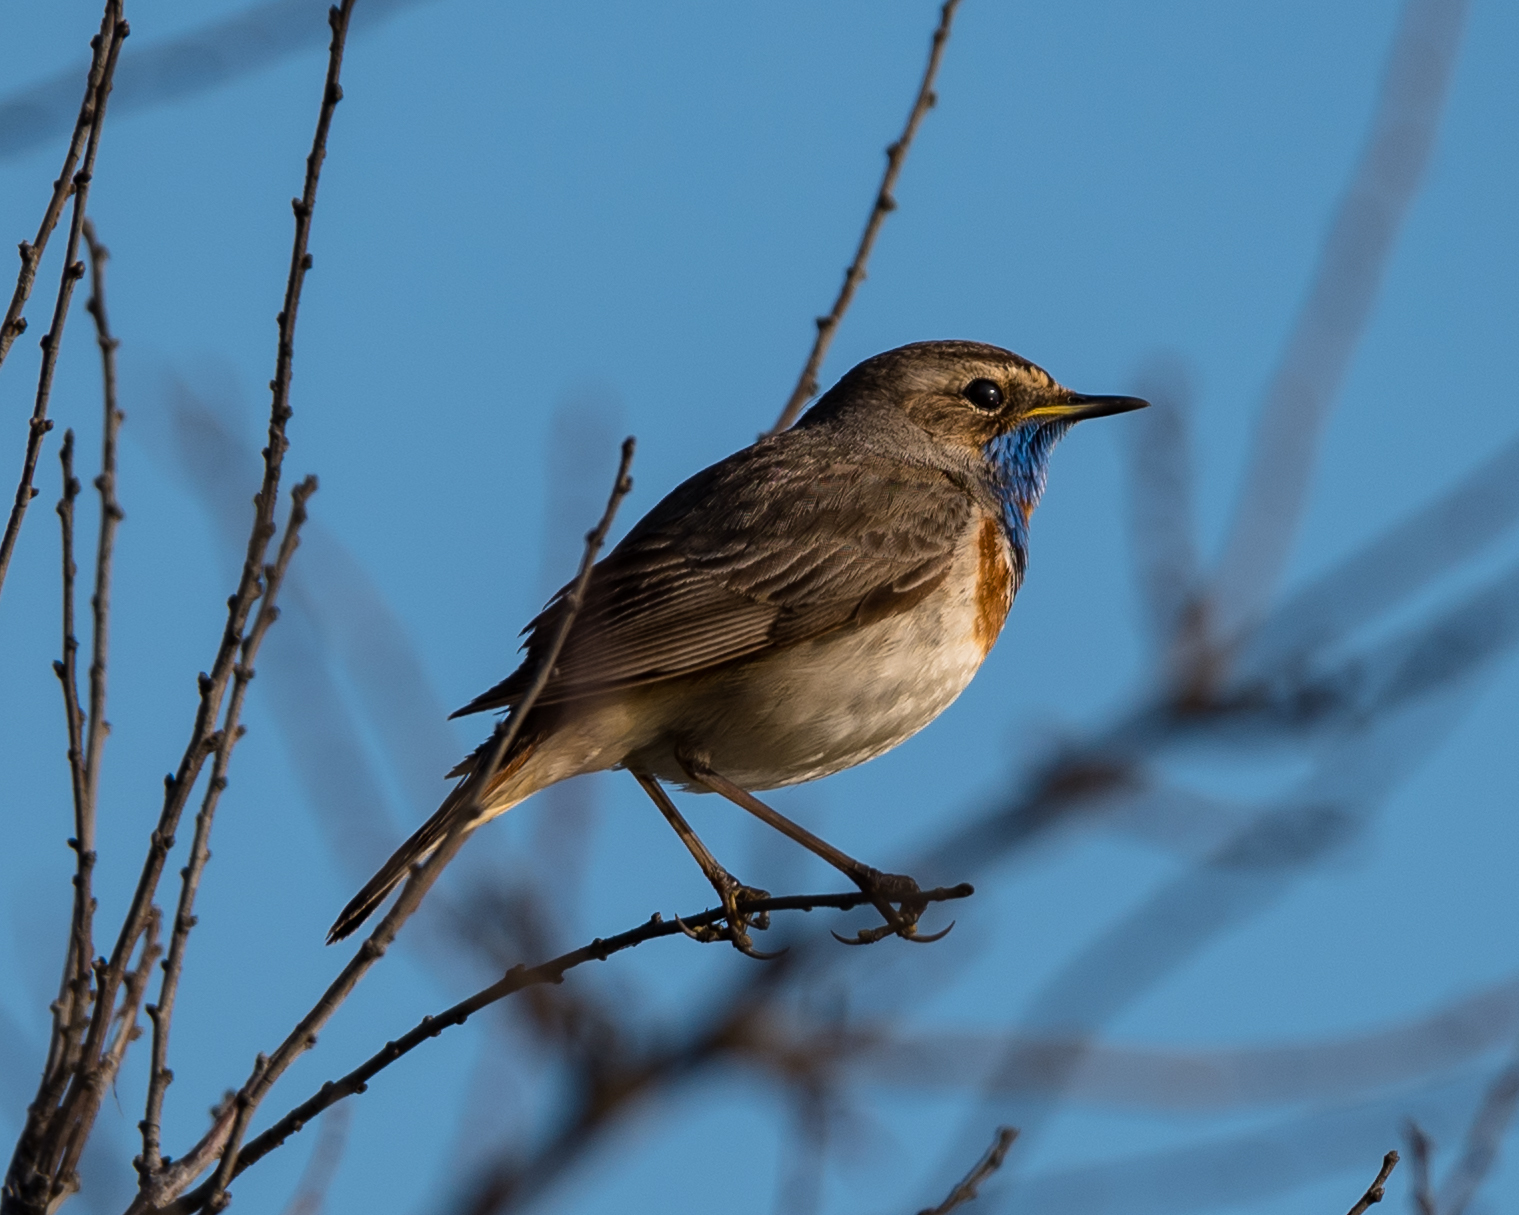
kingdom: Animalia
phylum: Chordata
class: Aves
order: Passeriformes
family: Muscicapidae
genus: Luscinia
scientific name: Luscinia svecica
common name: Bluethroat
